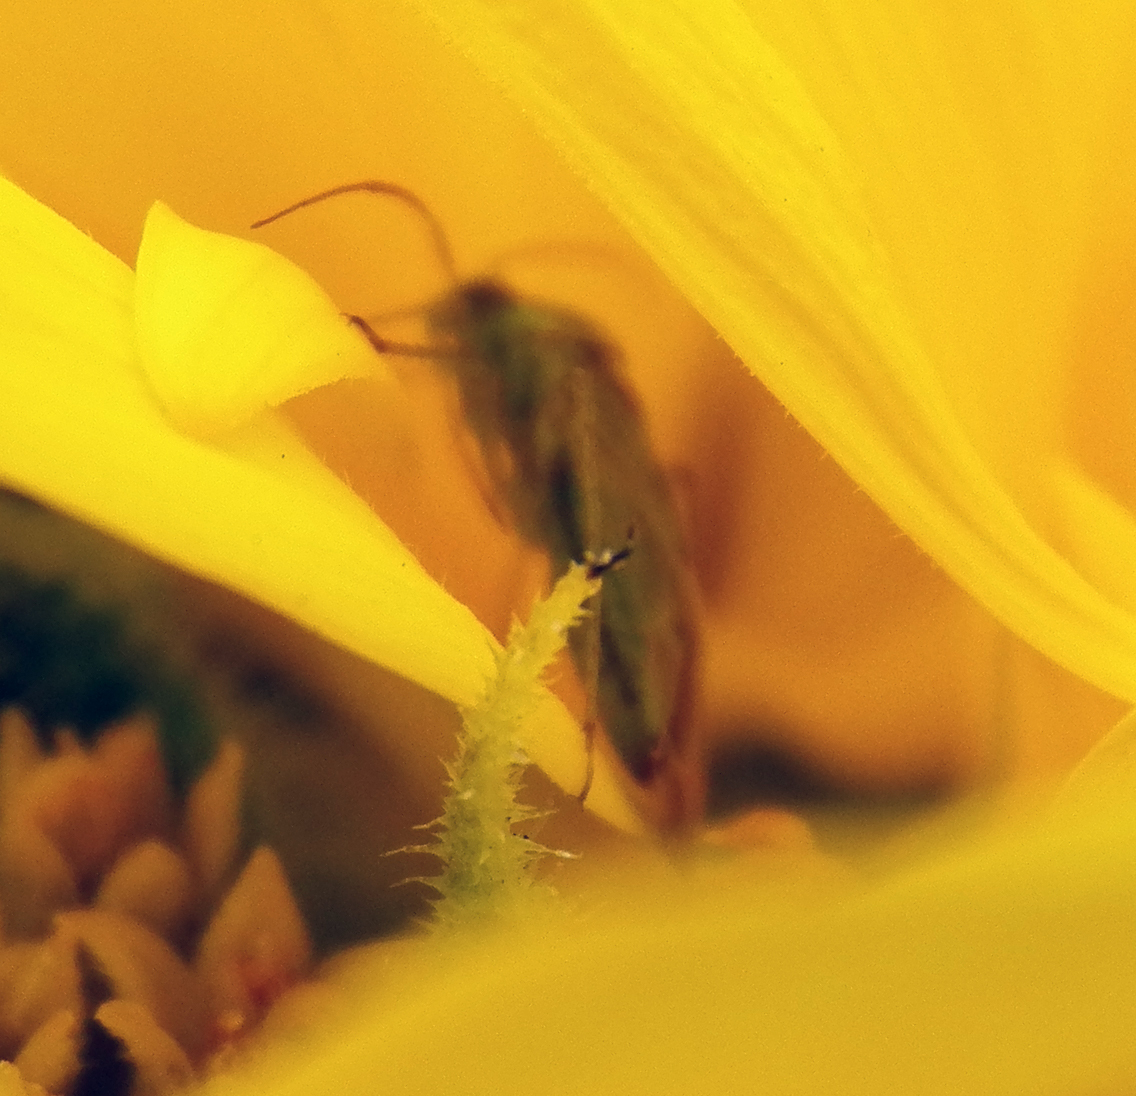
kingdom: Animalia
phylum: Arthropoda
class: Insecta
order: Hemiptera
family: Miridae
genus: Taylorilygus
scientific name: Taylorilygus apicalis
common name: Plant bug
